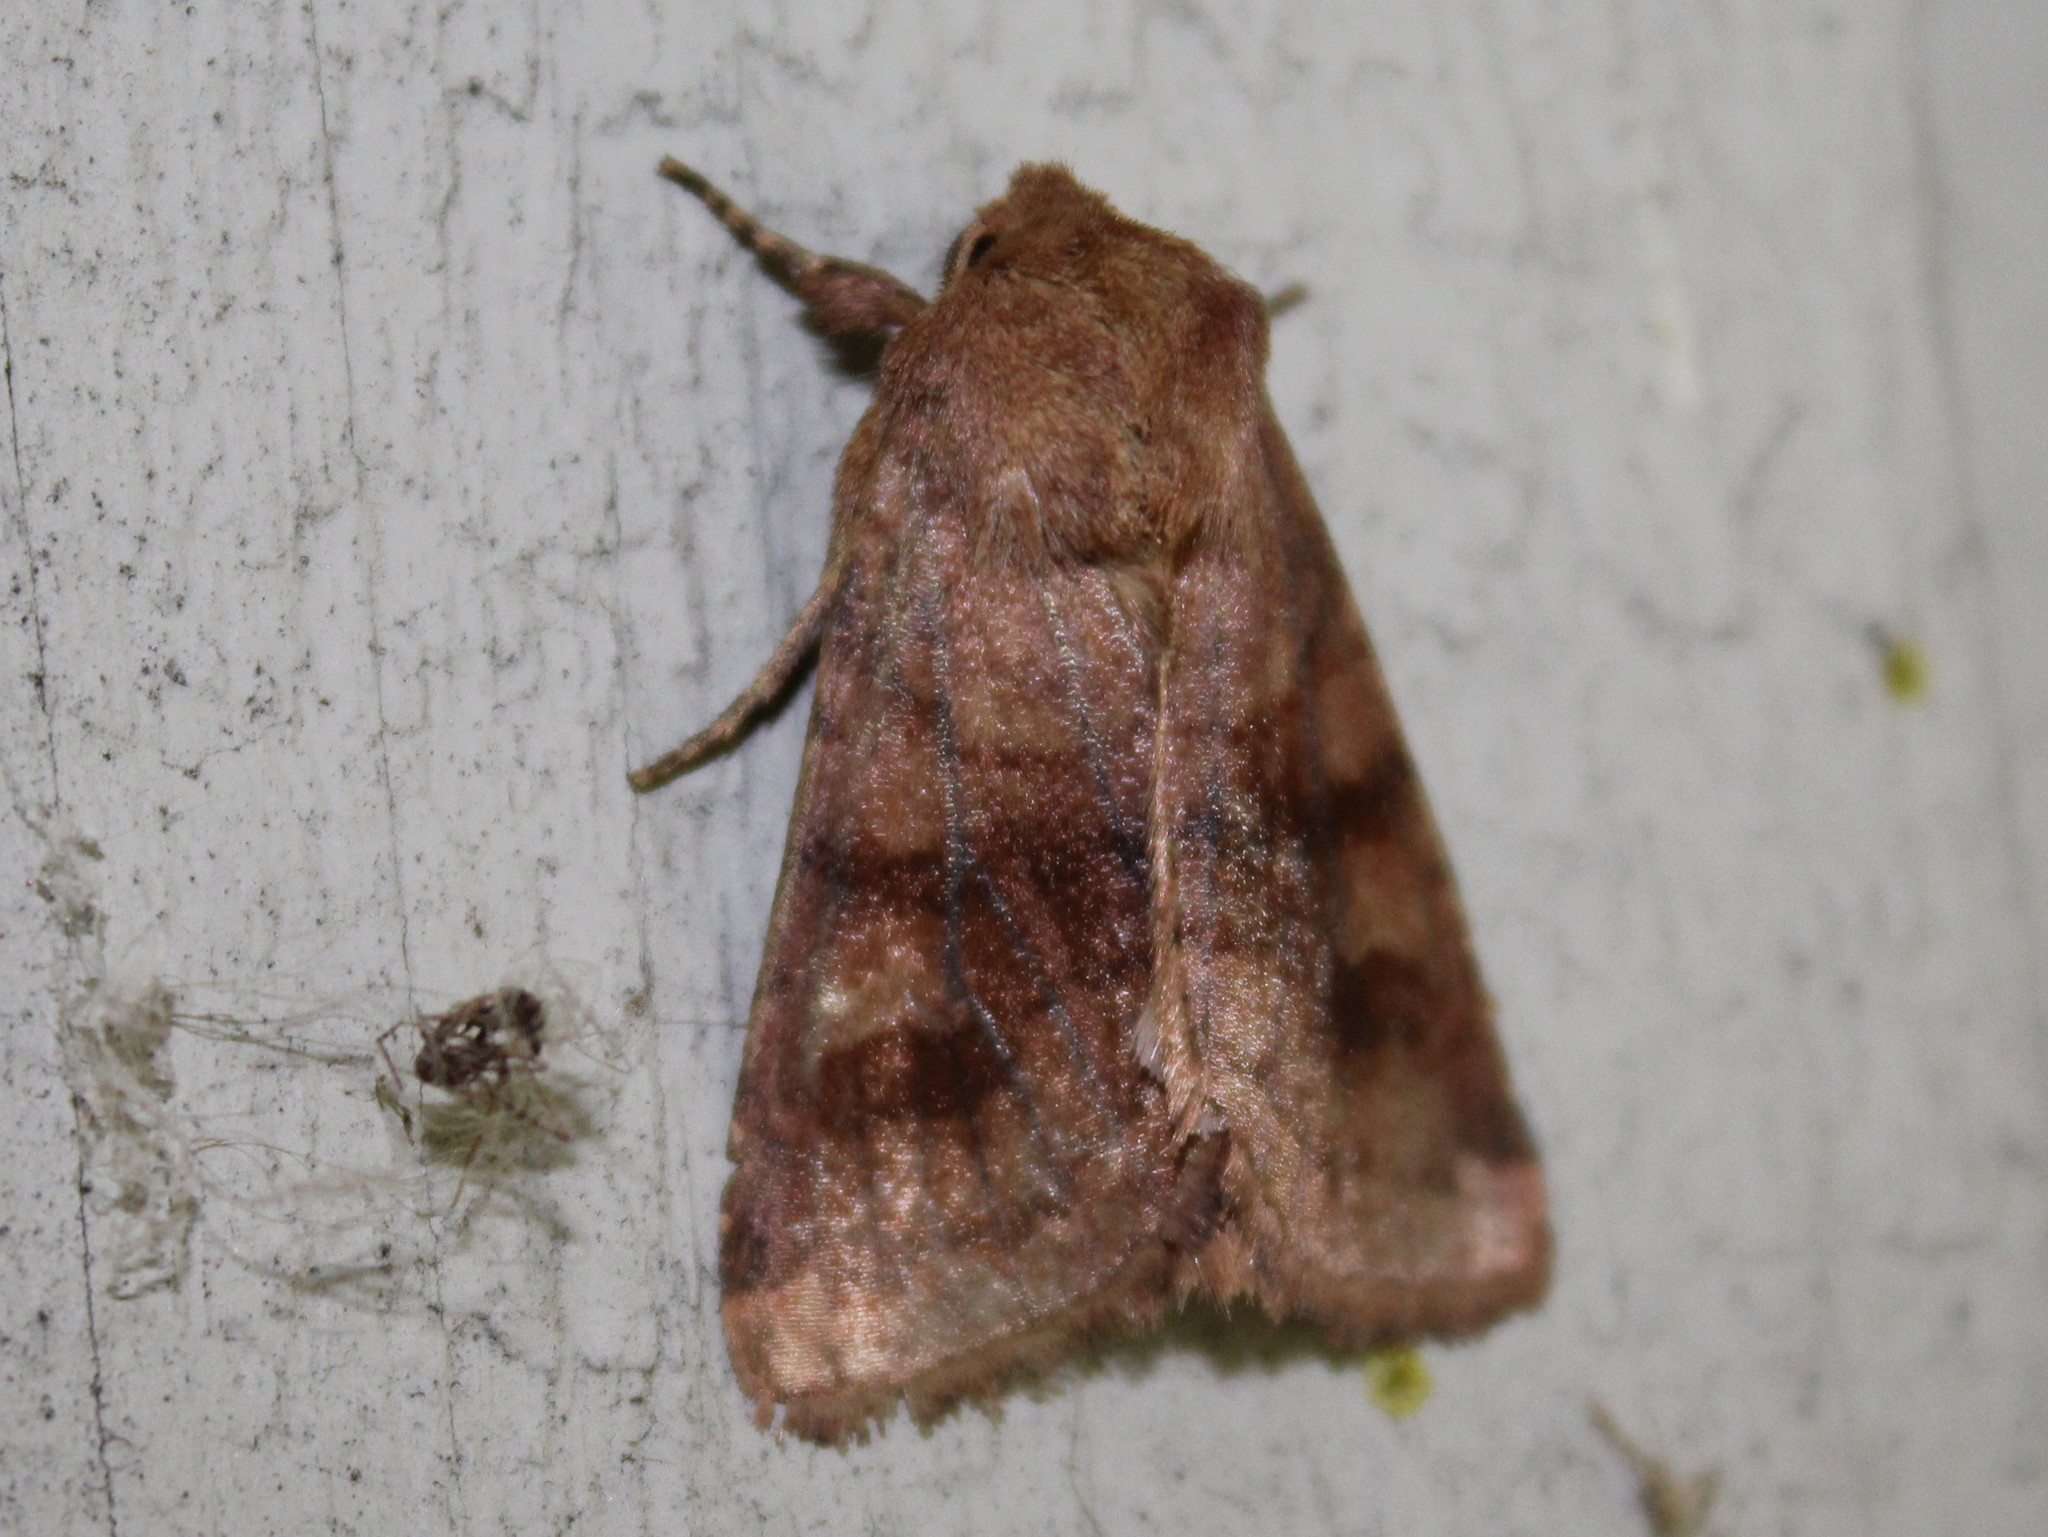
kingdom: Animalia
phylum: Arthropoda
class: Insecta
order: Lepidoptera
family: Noctuidae
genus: Nephelodes
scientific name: Nephelodes minians
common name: Bronzed cutworm
